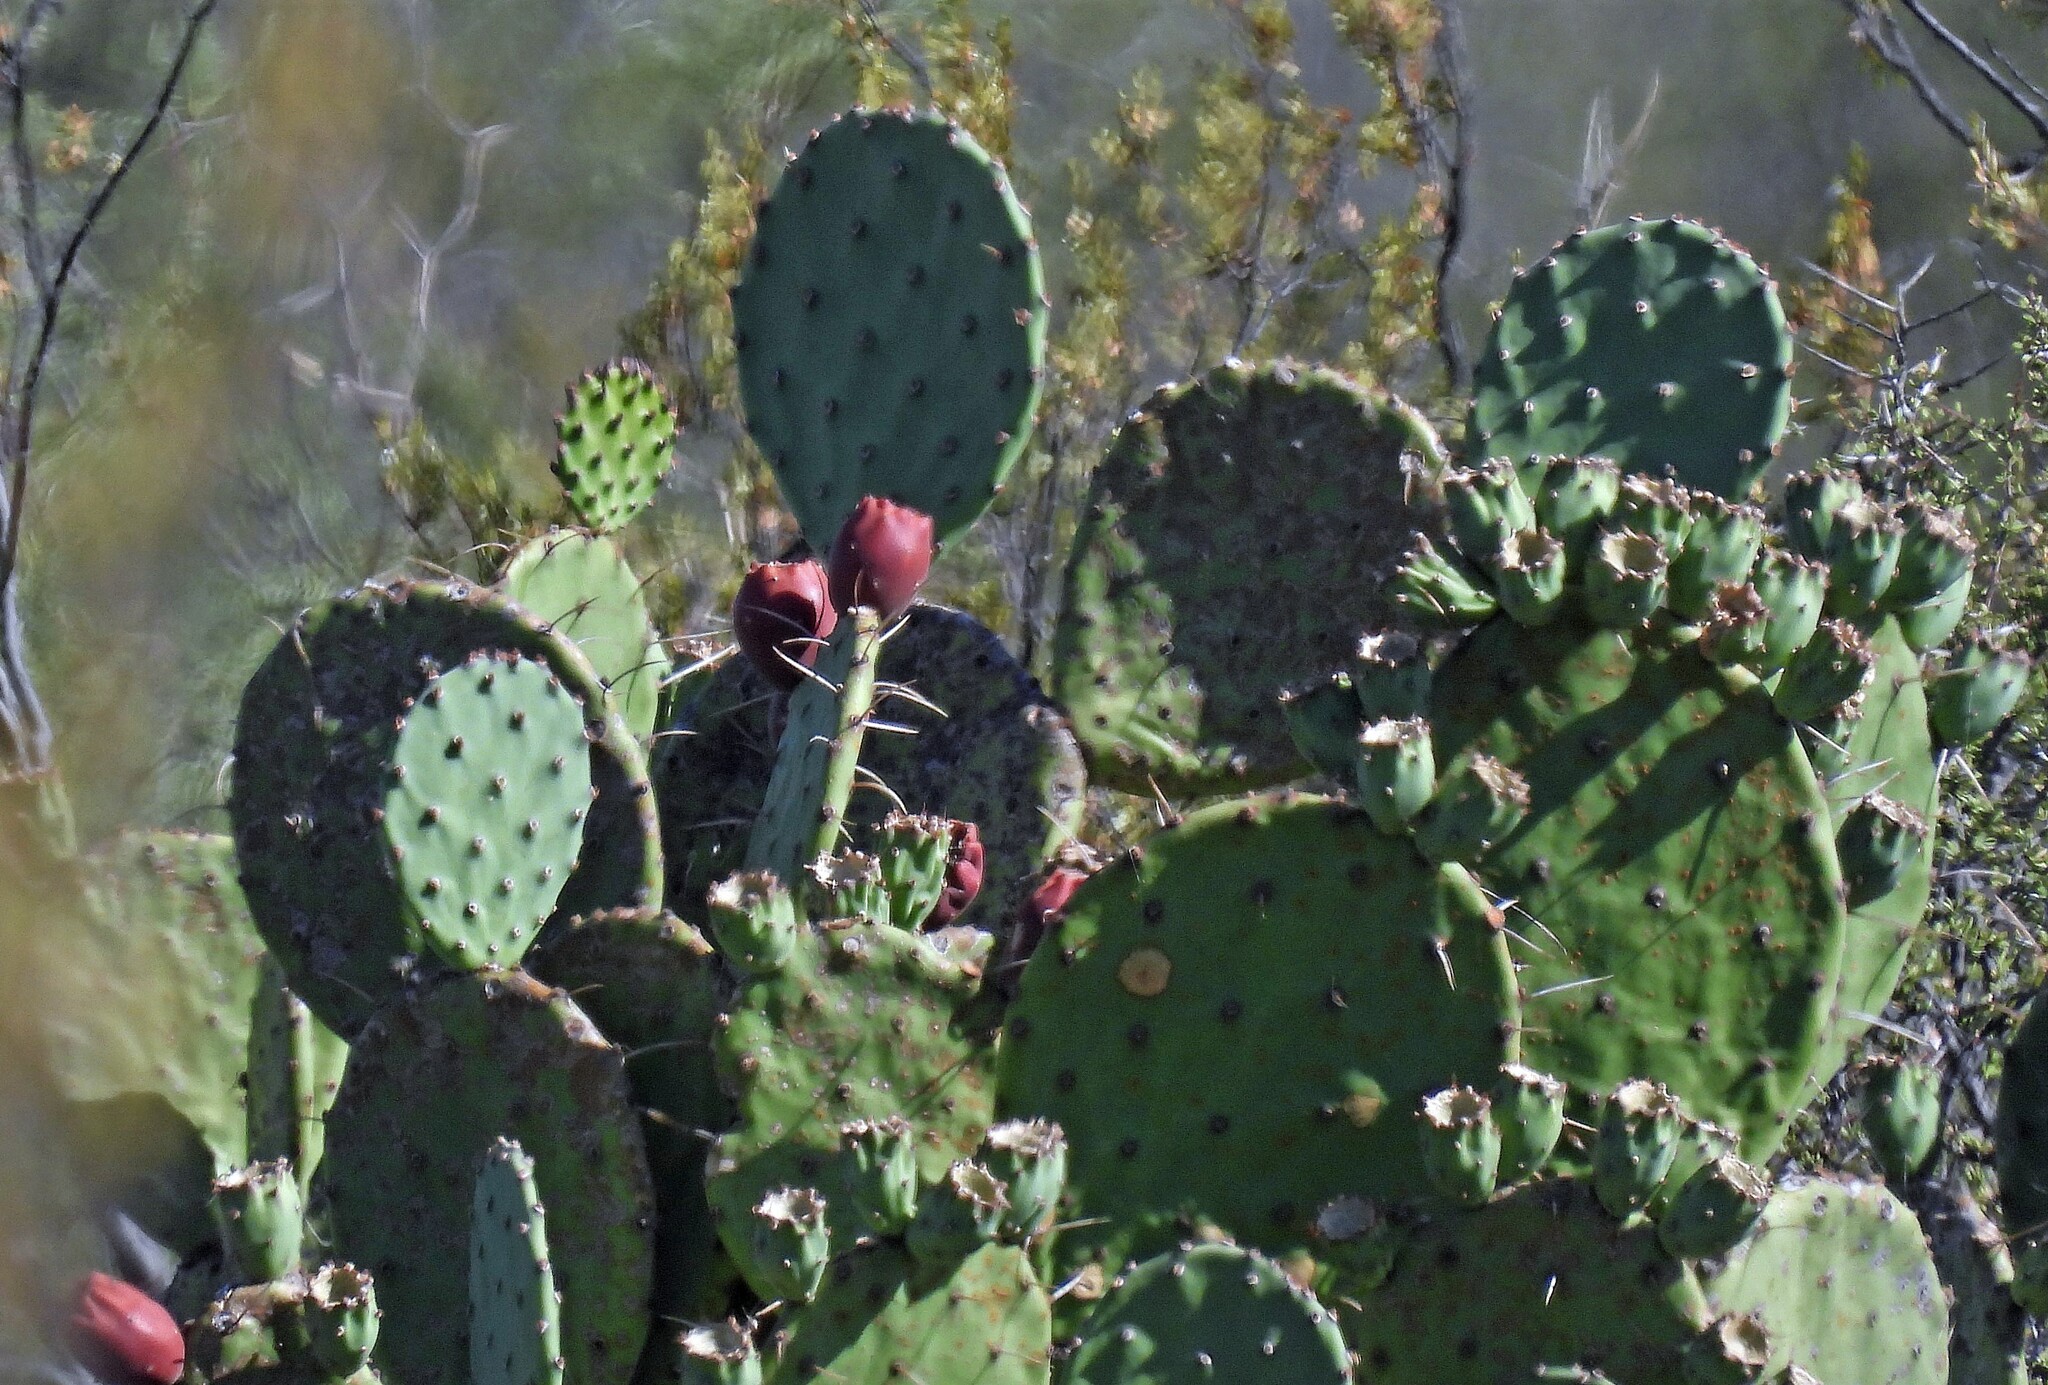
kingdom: Plantae
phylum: Tracheophyta
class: Magnoliopsida
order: Caryophyllales
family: Cactaceae
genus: Opuntia
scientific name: Opuntia megapotamica
